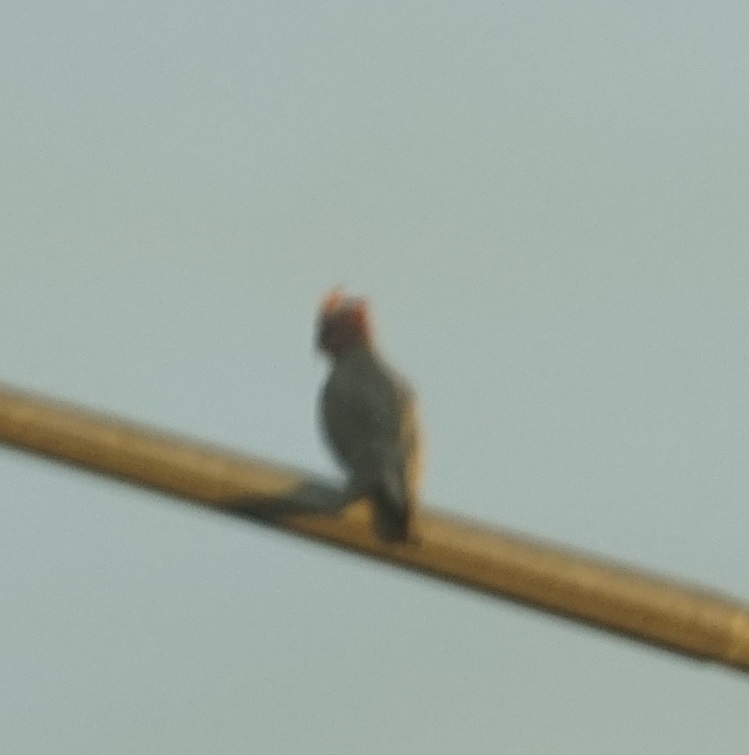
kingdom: Animalia
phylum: Chordata
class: Aves
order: Psittaciformes
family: Psittacidae
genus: Eolophus
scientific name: Eolophus roseicapilla
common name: Galah
